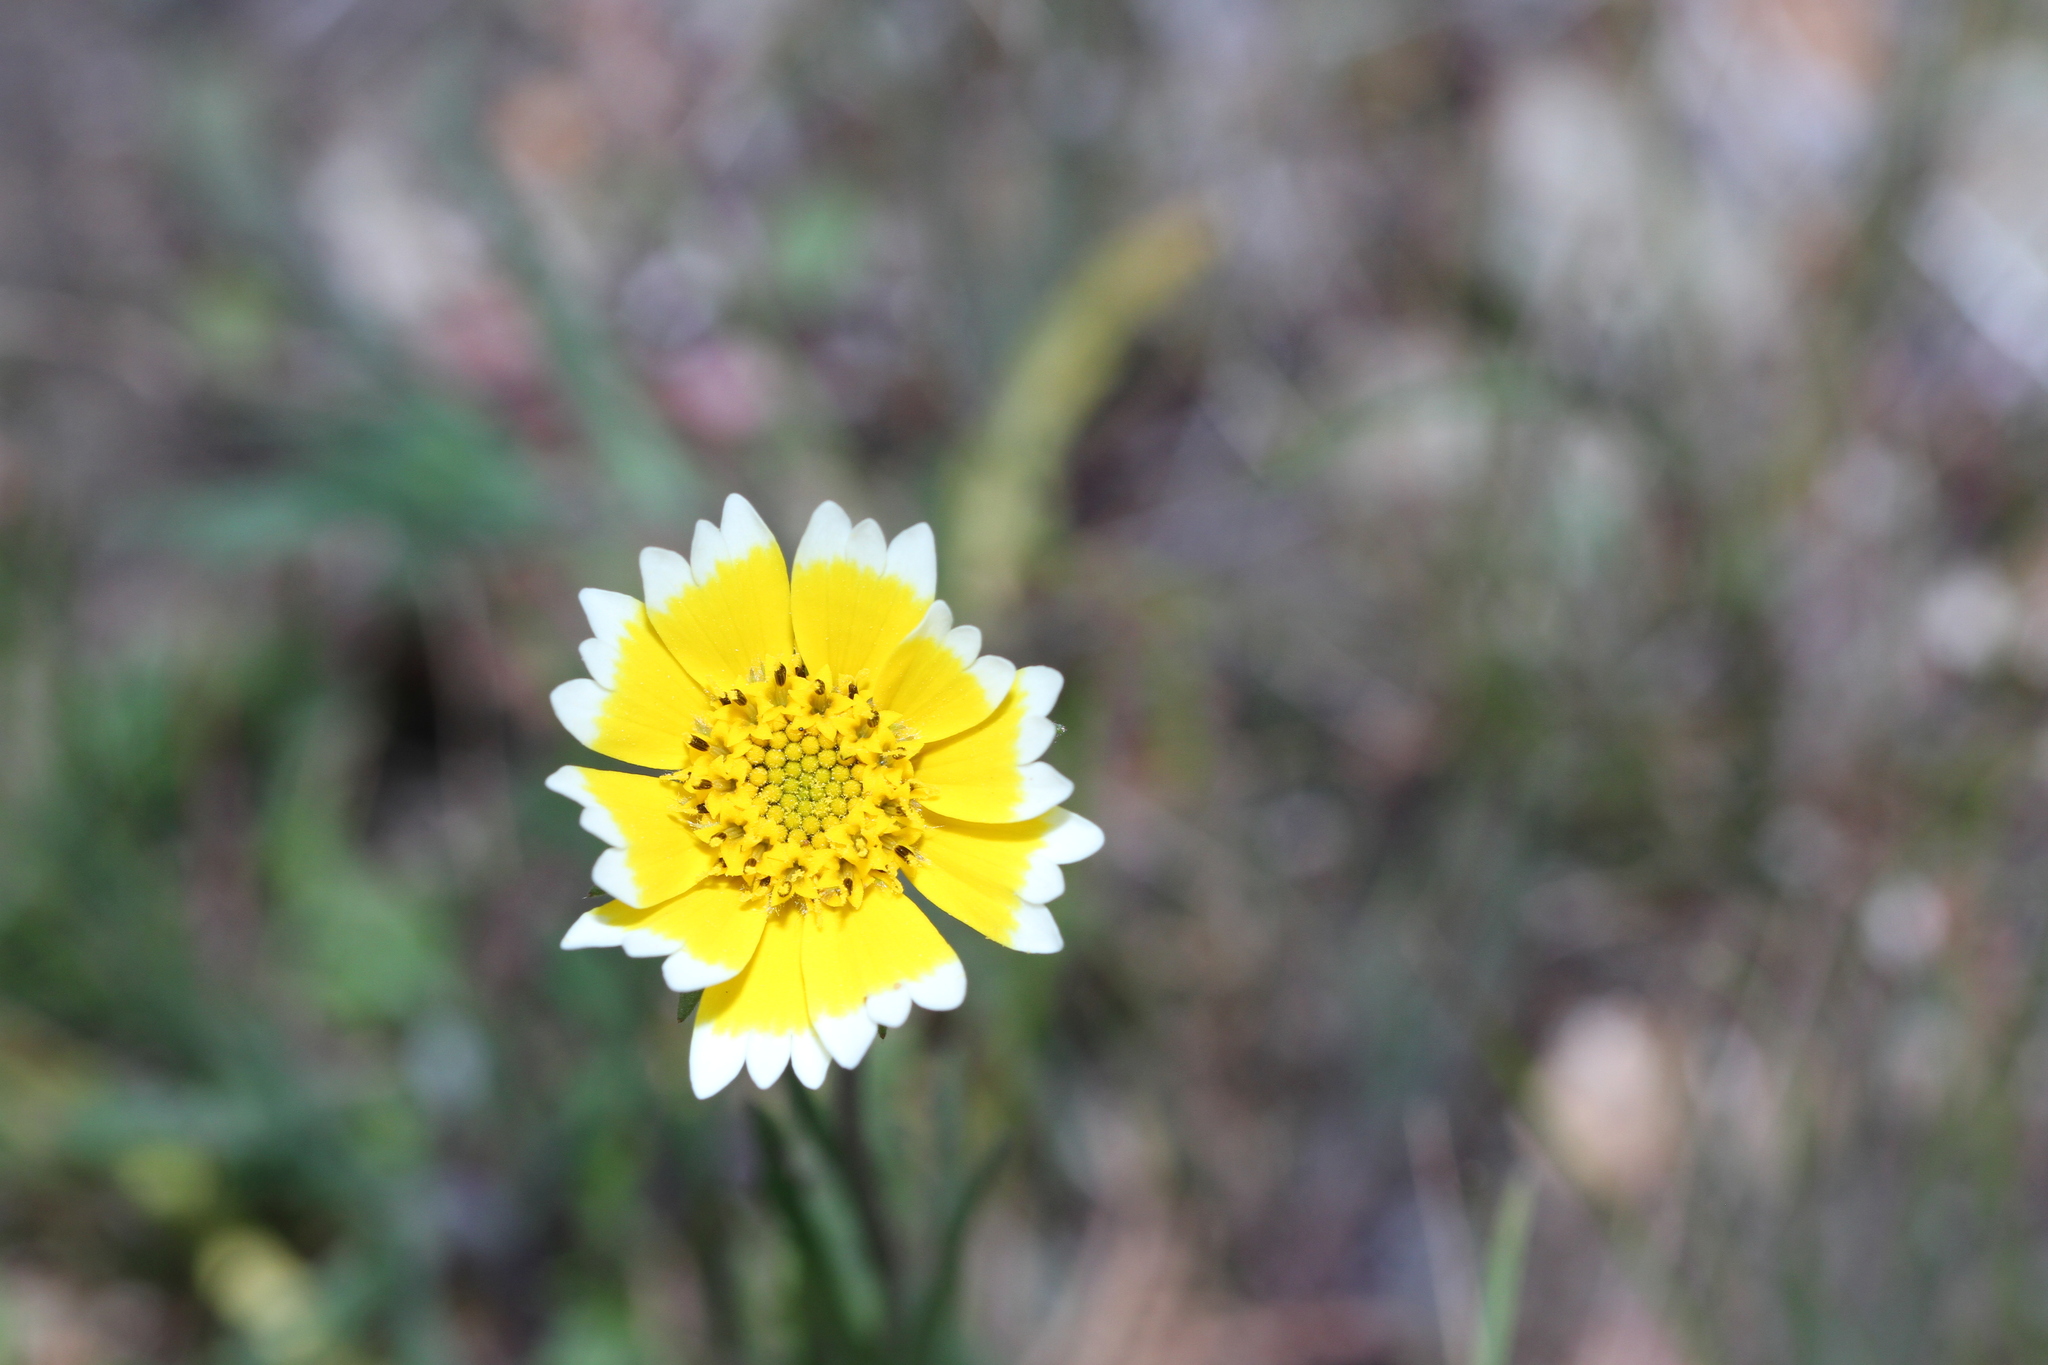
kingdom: Plantae
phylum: Tracheophyta
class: Magnoliopsida
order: Asterales
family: Asteraceae
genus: Layia
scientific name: Layia platyglossa
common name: Tidy-tips
